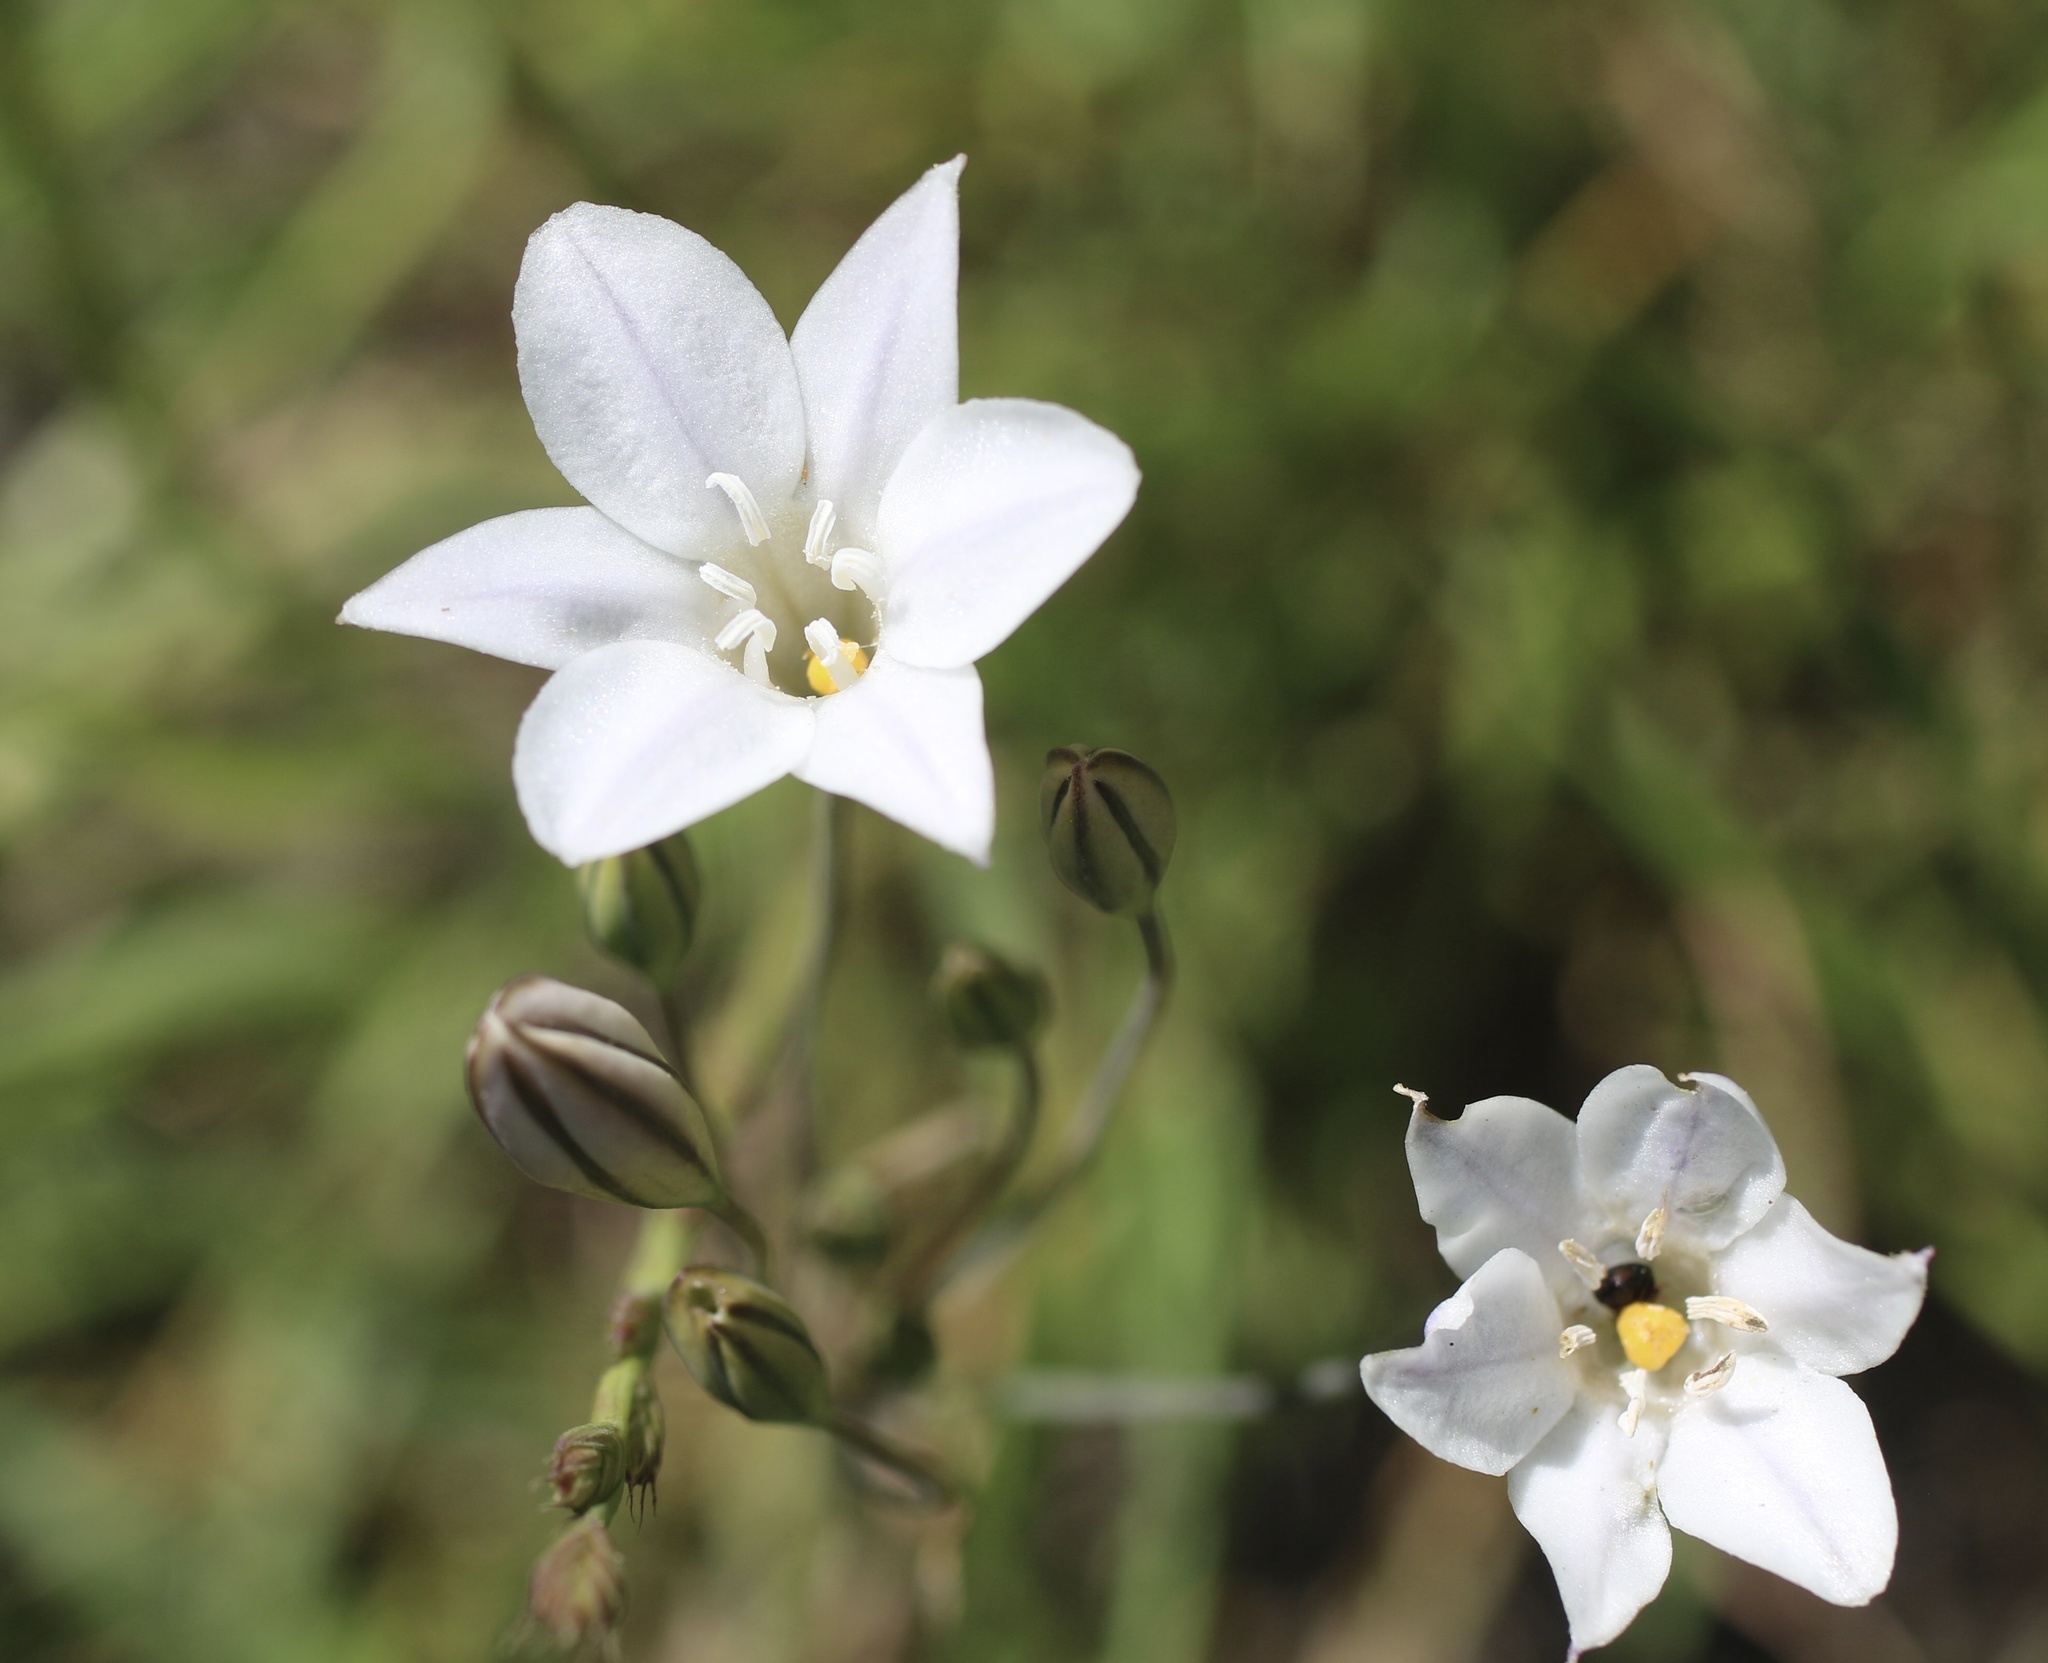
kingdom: Plantae
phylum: Tracheophyta
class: Liliopsida
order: Asparagales
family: Asparagaceae
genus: Triteleia
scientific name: Triteleia peduncularis
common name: Long-ray brodiaea
